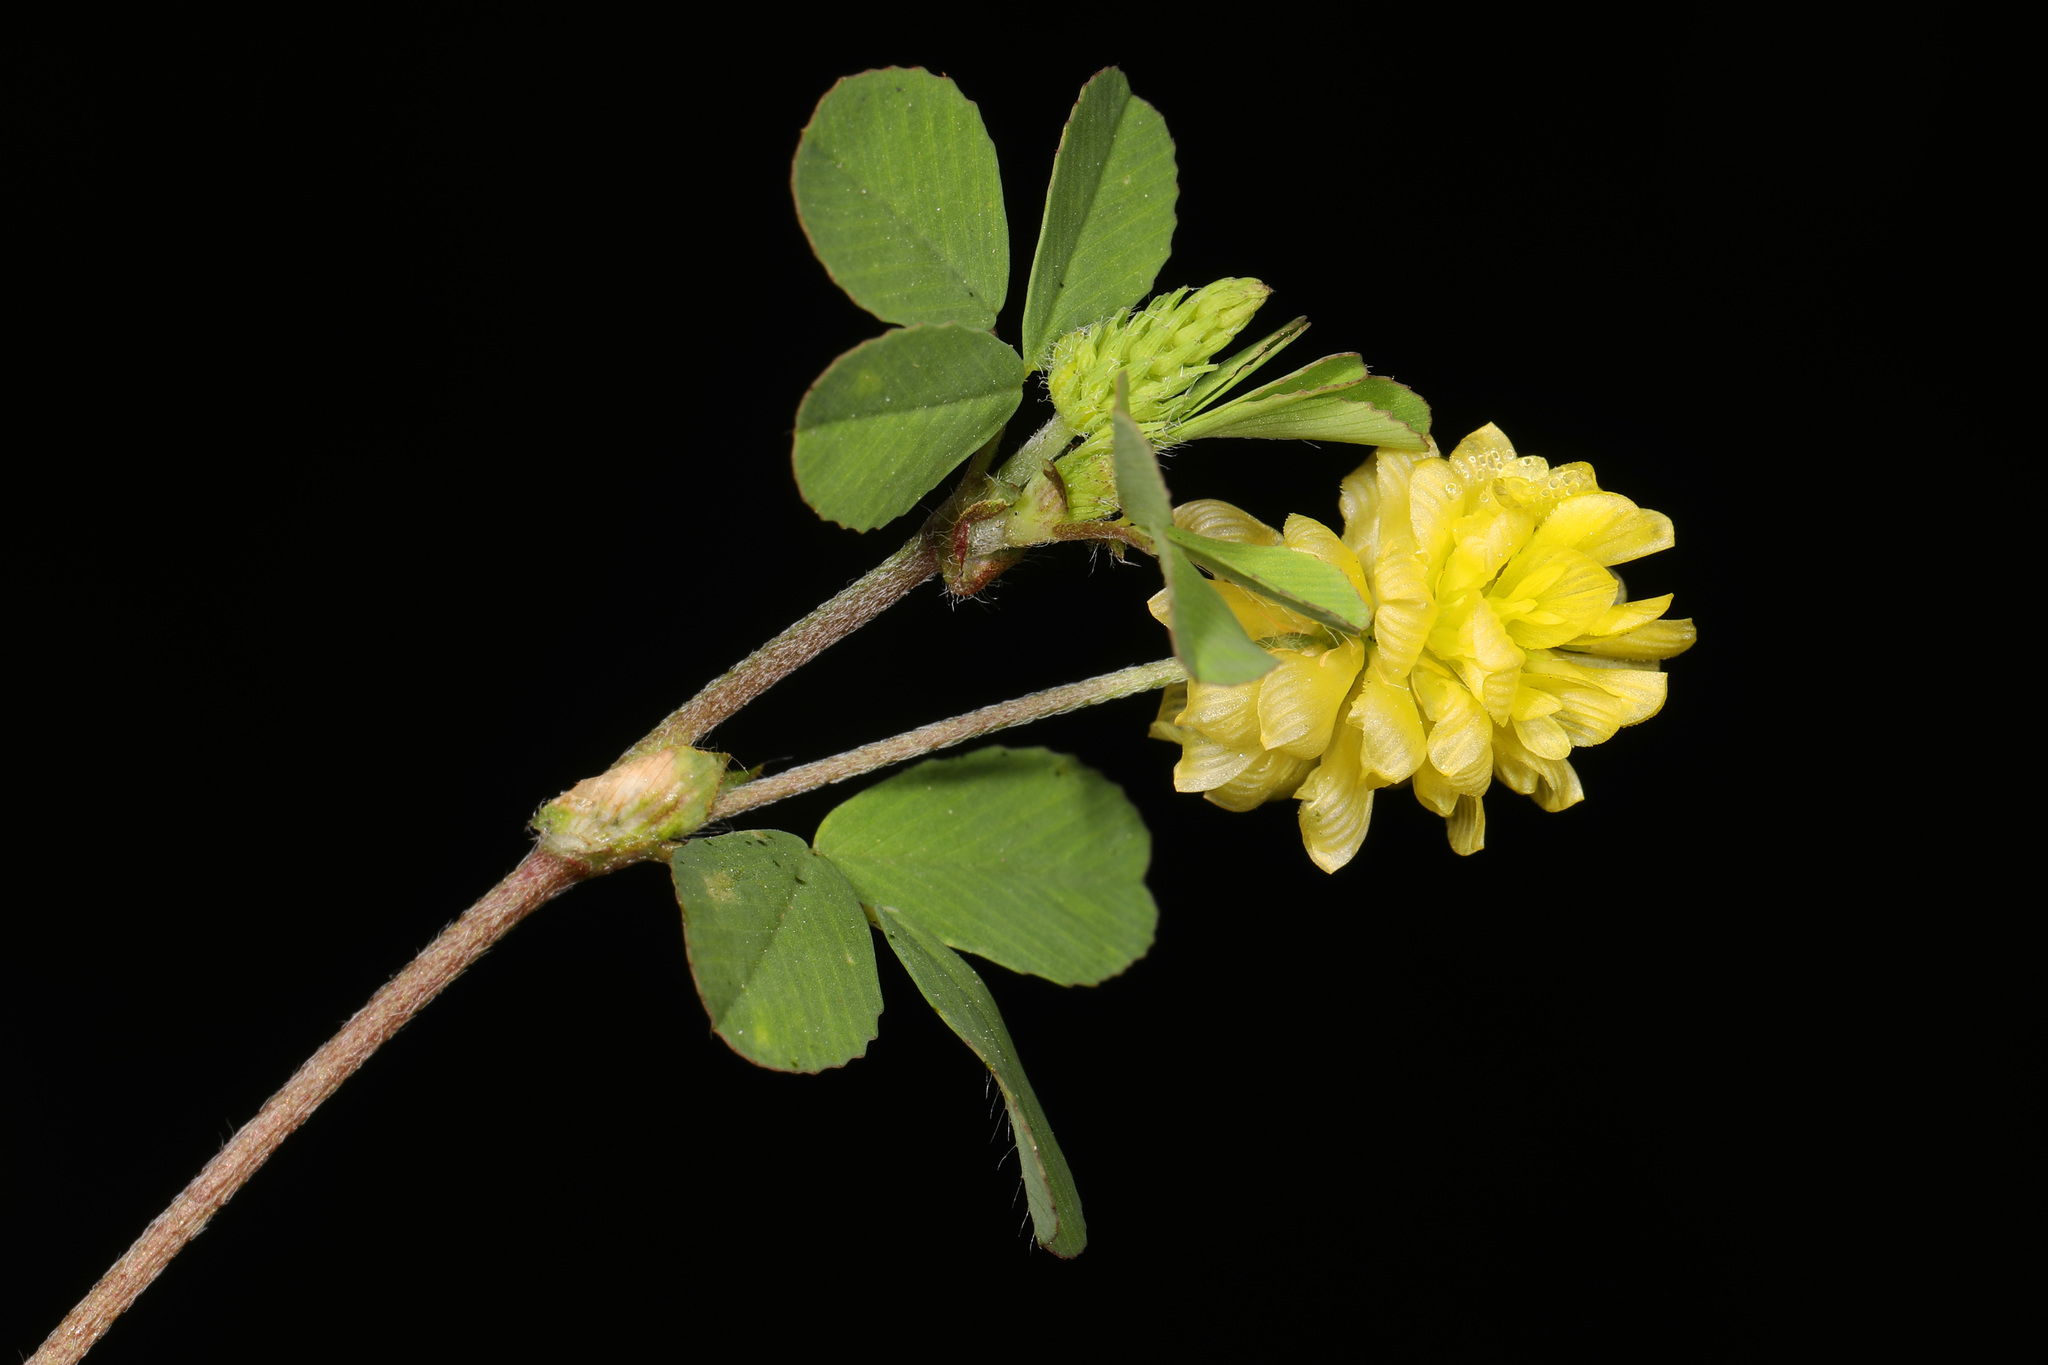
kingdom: Plantae
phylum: Tracheophyta
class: Magnoliopsida
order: Fabales
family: Fabaceae
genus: Trifolium
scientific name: Trifolium campestre
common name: Field clover
